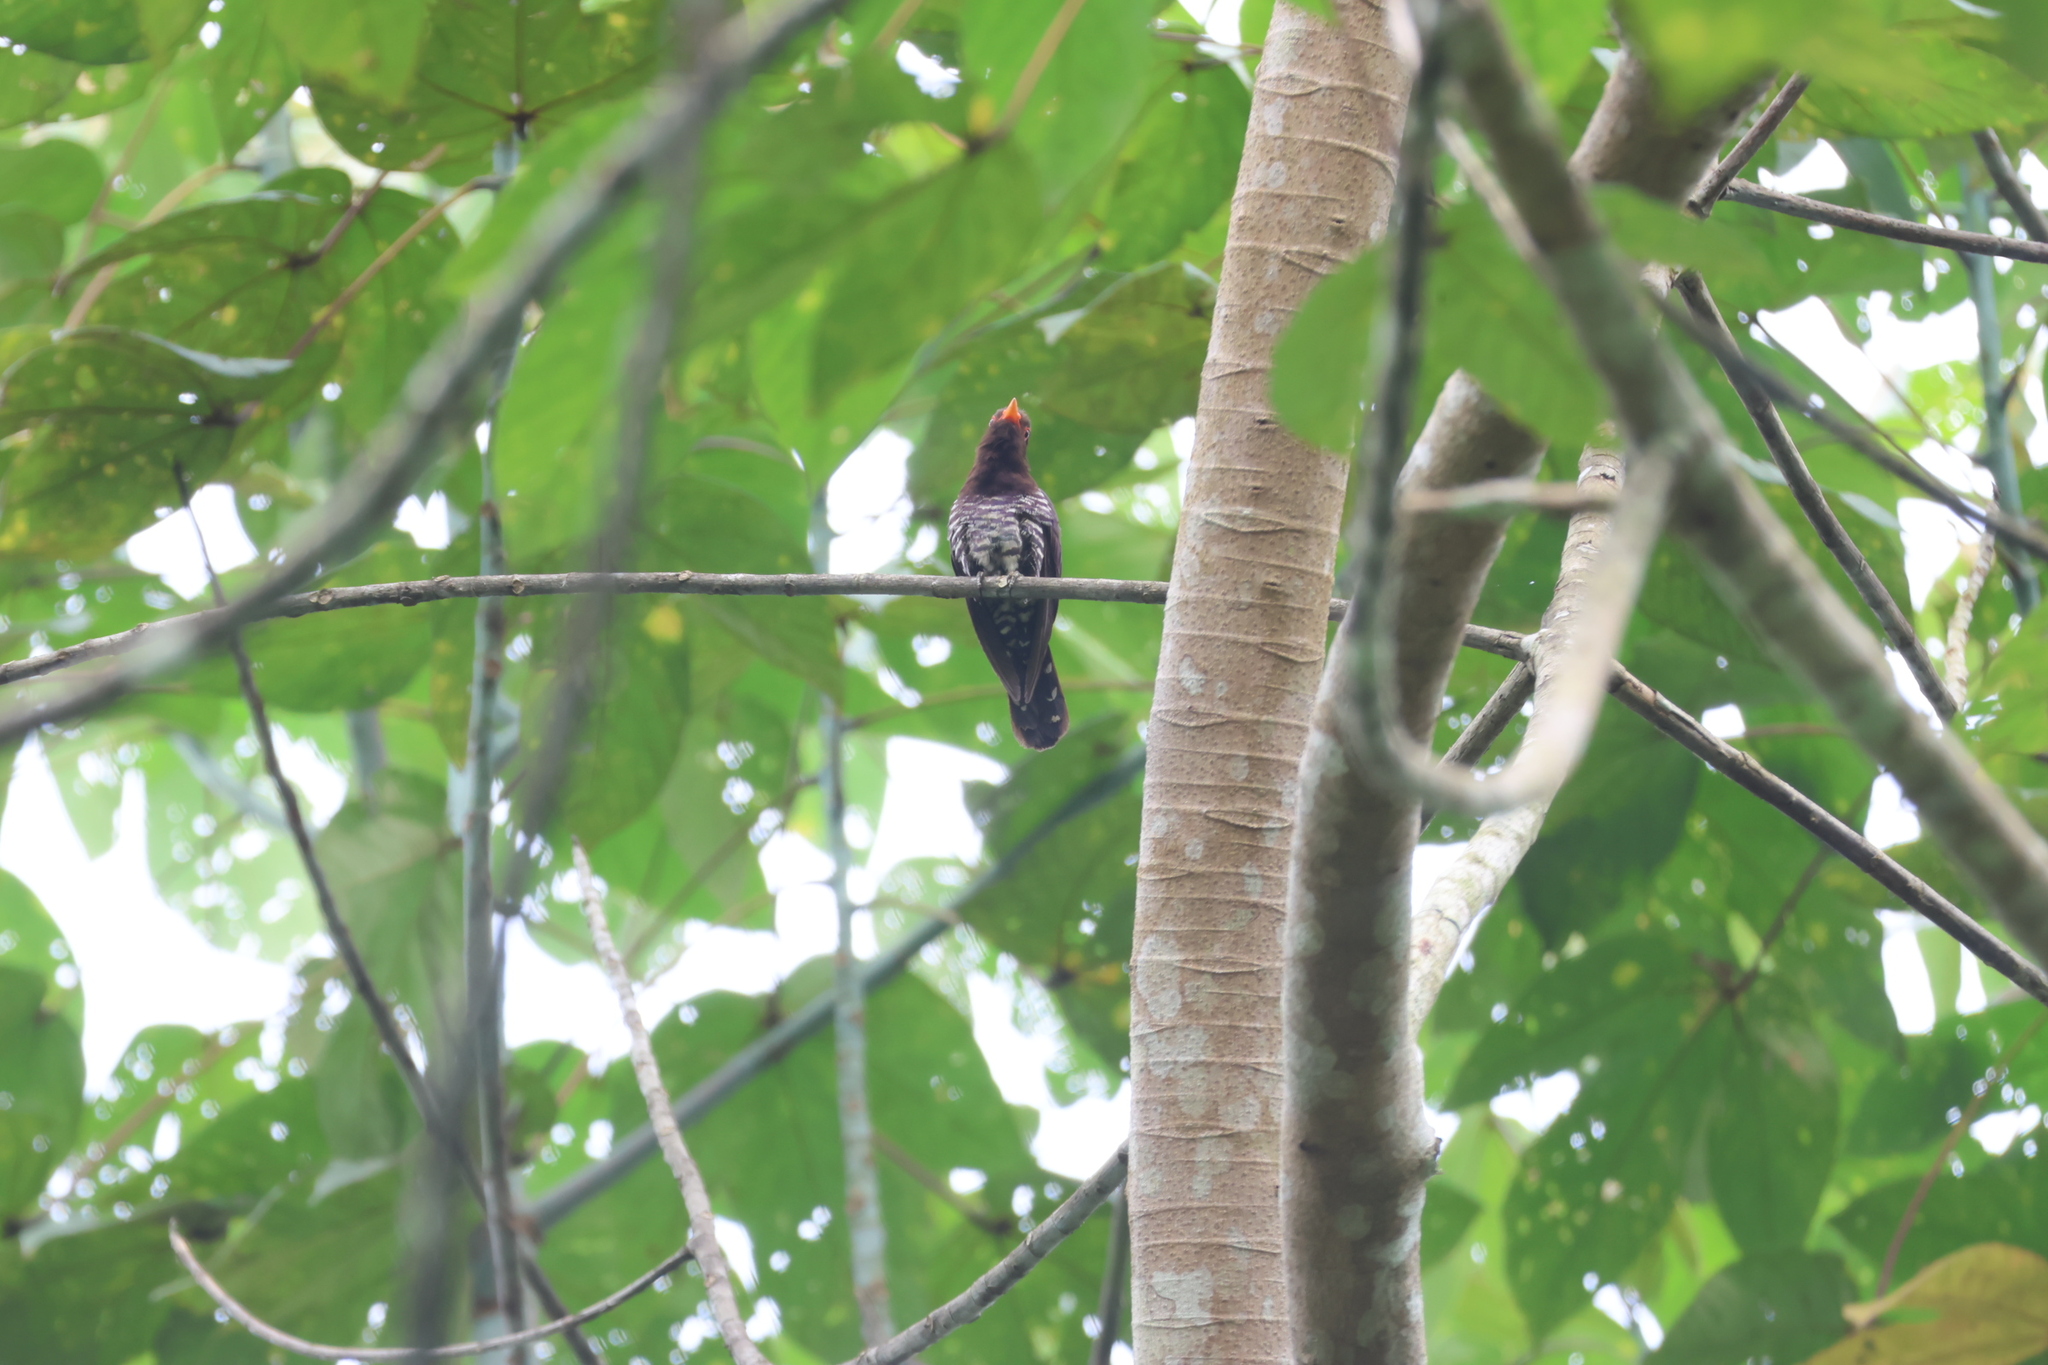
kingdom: Animalia
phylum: Chordata
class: Aves
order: Cuculiformes
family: Cuculidae
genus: Chrysococcyx
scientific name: Chrysococcyx xanthorhynchus
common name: Violet cuckoo
